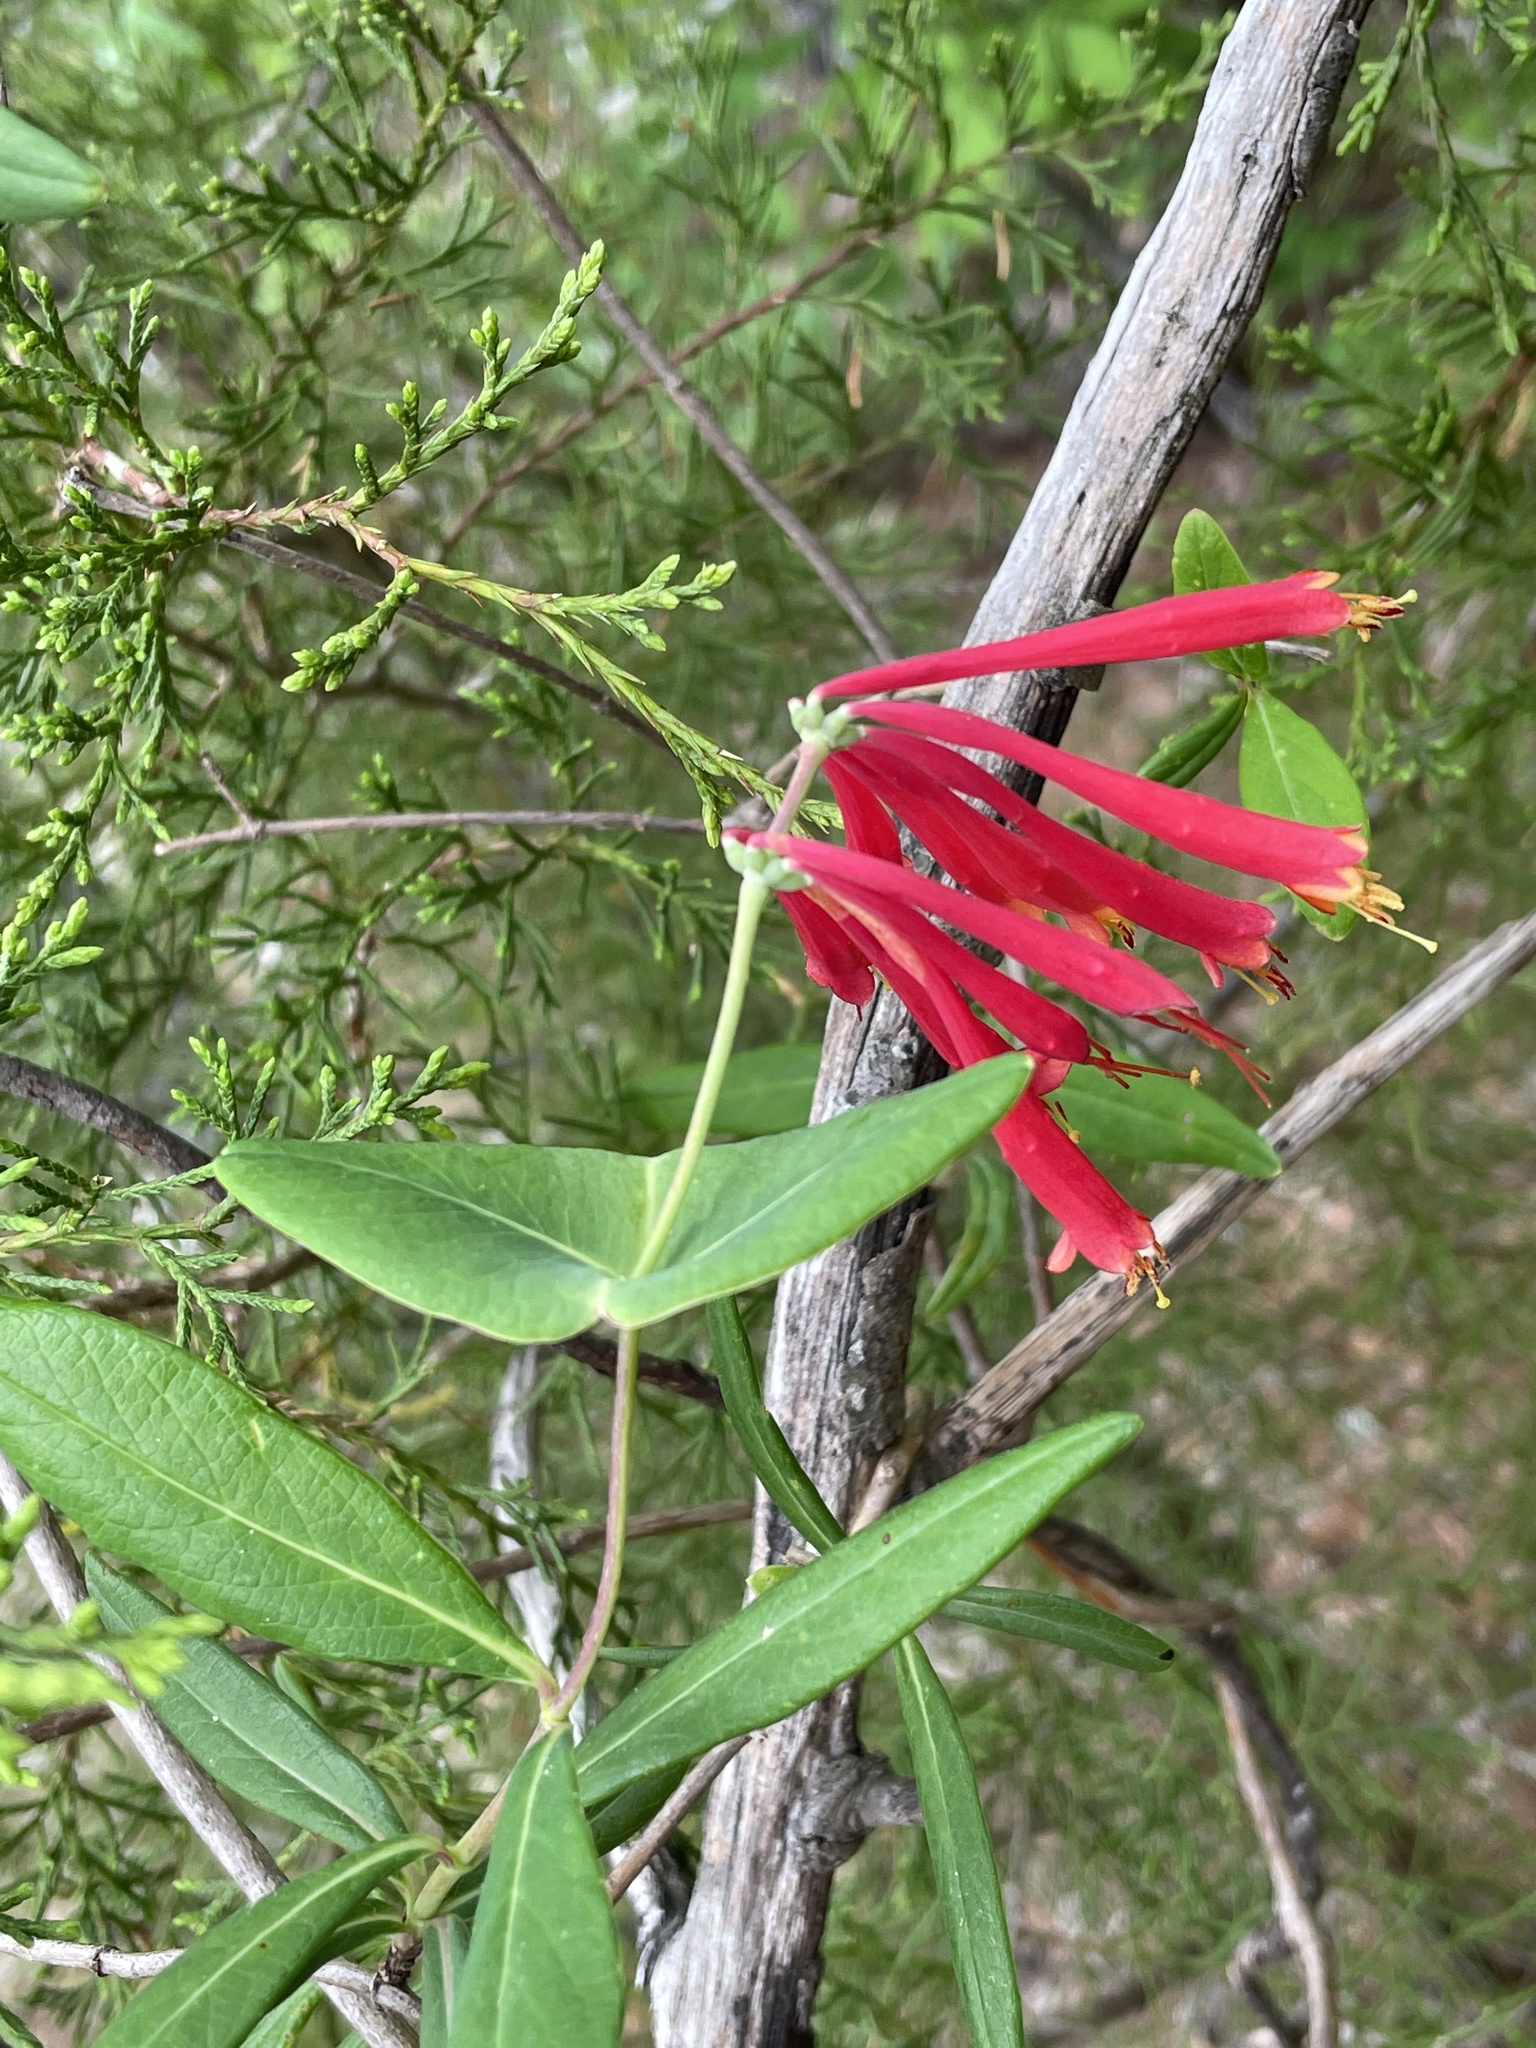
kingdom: Plantae
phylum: Tracheophyta
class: Magnoliopsida
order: Dipsacales
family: Caprifoliaceae
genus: Lonicera
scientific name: Lonicera sempervirens
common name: Coral honeysuckle
